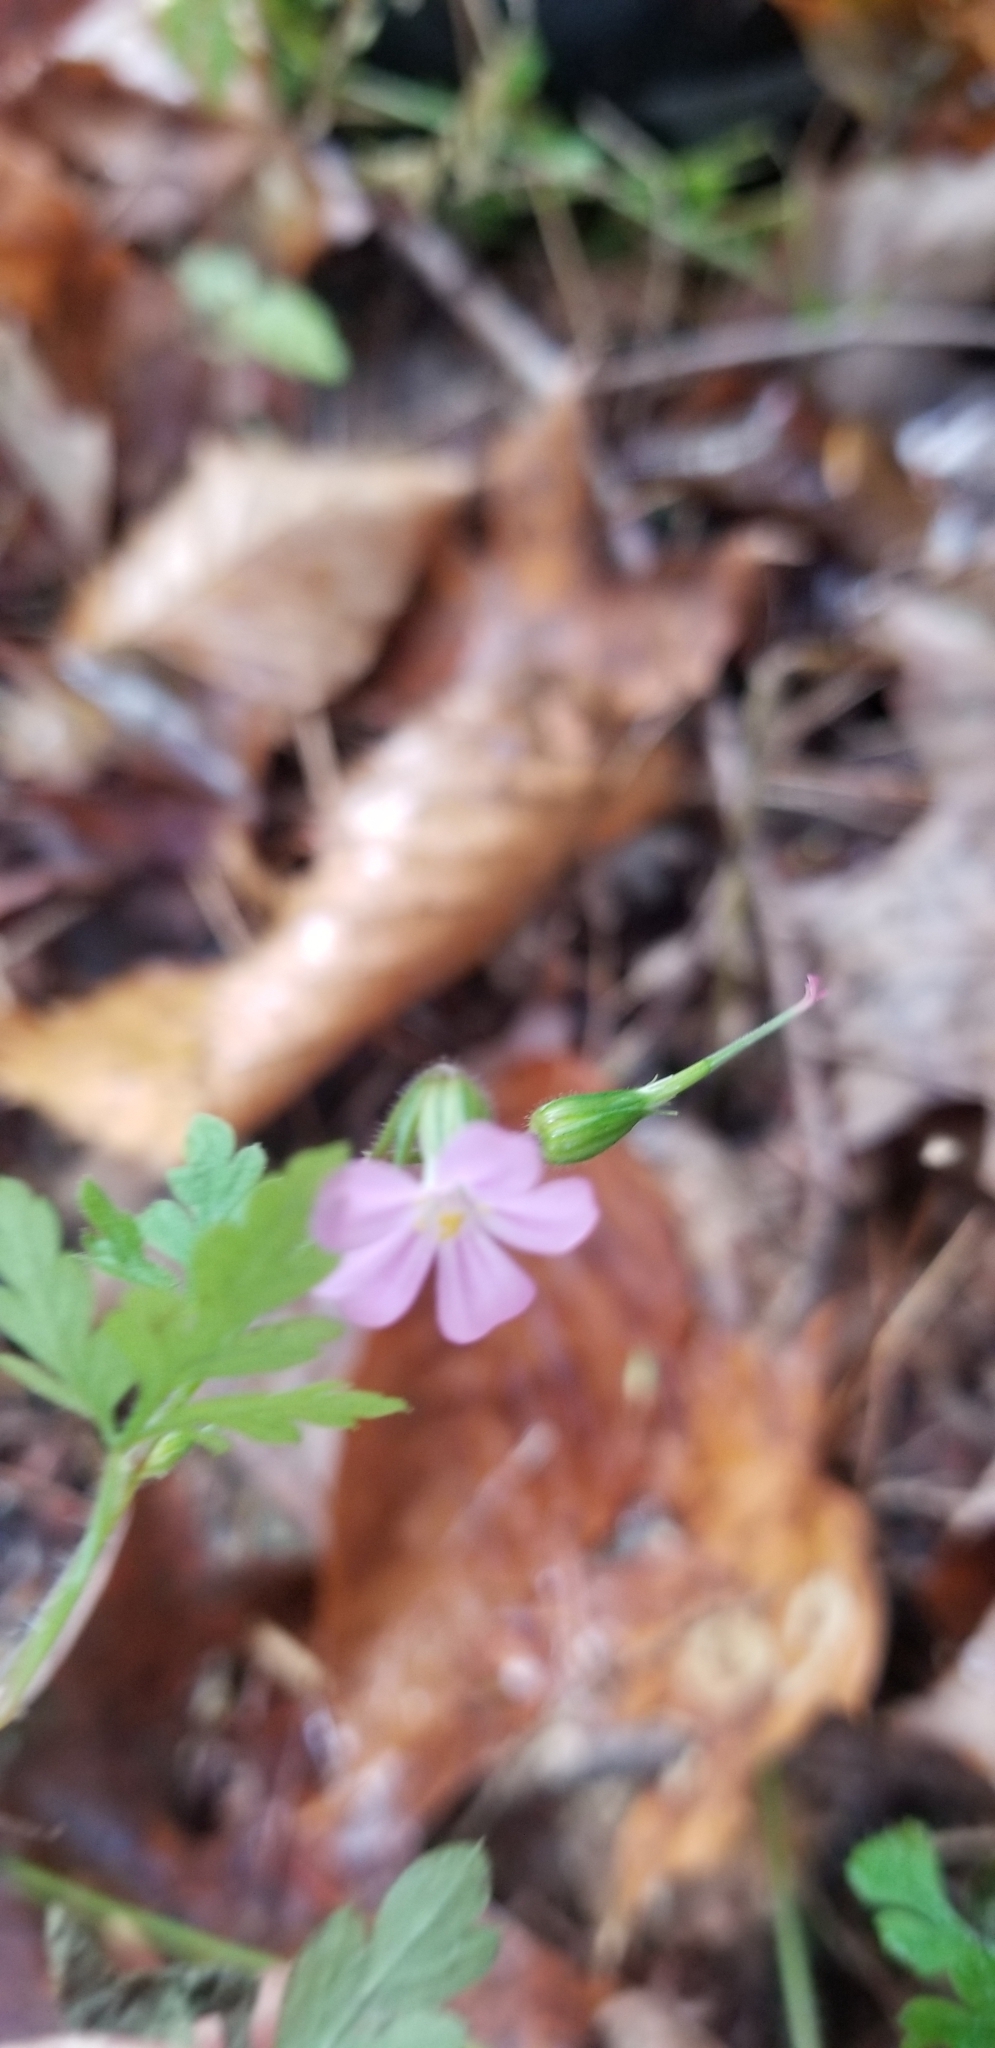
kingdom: Plantae
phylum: Tracheophyta
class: Magnoliopsida
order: Geraniales
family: Geraniaceae
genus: Geranium
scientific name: Geranium robertianum
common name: Herb-robert
